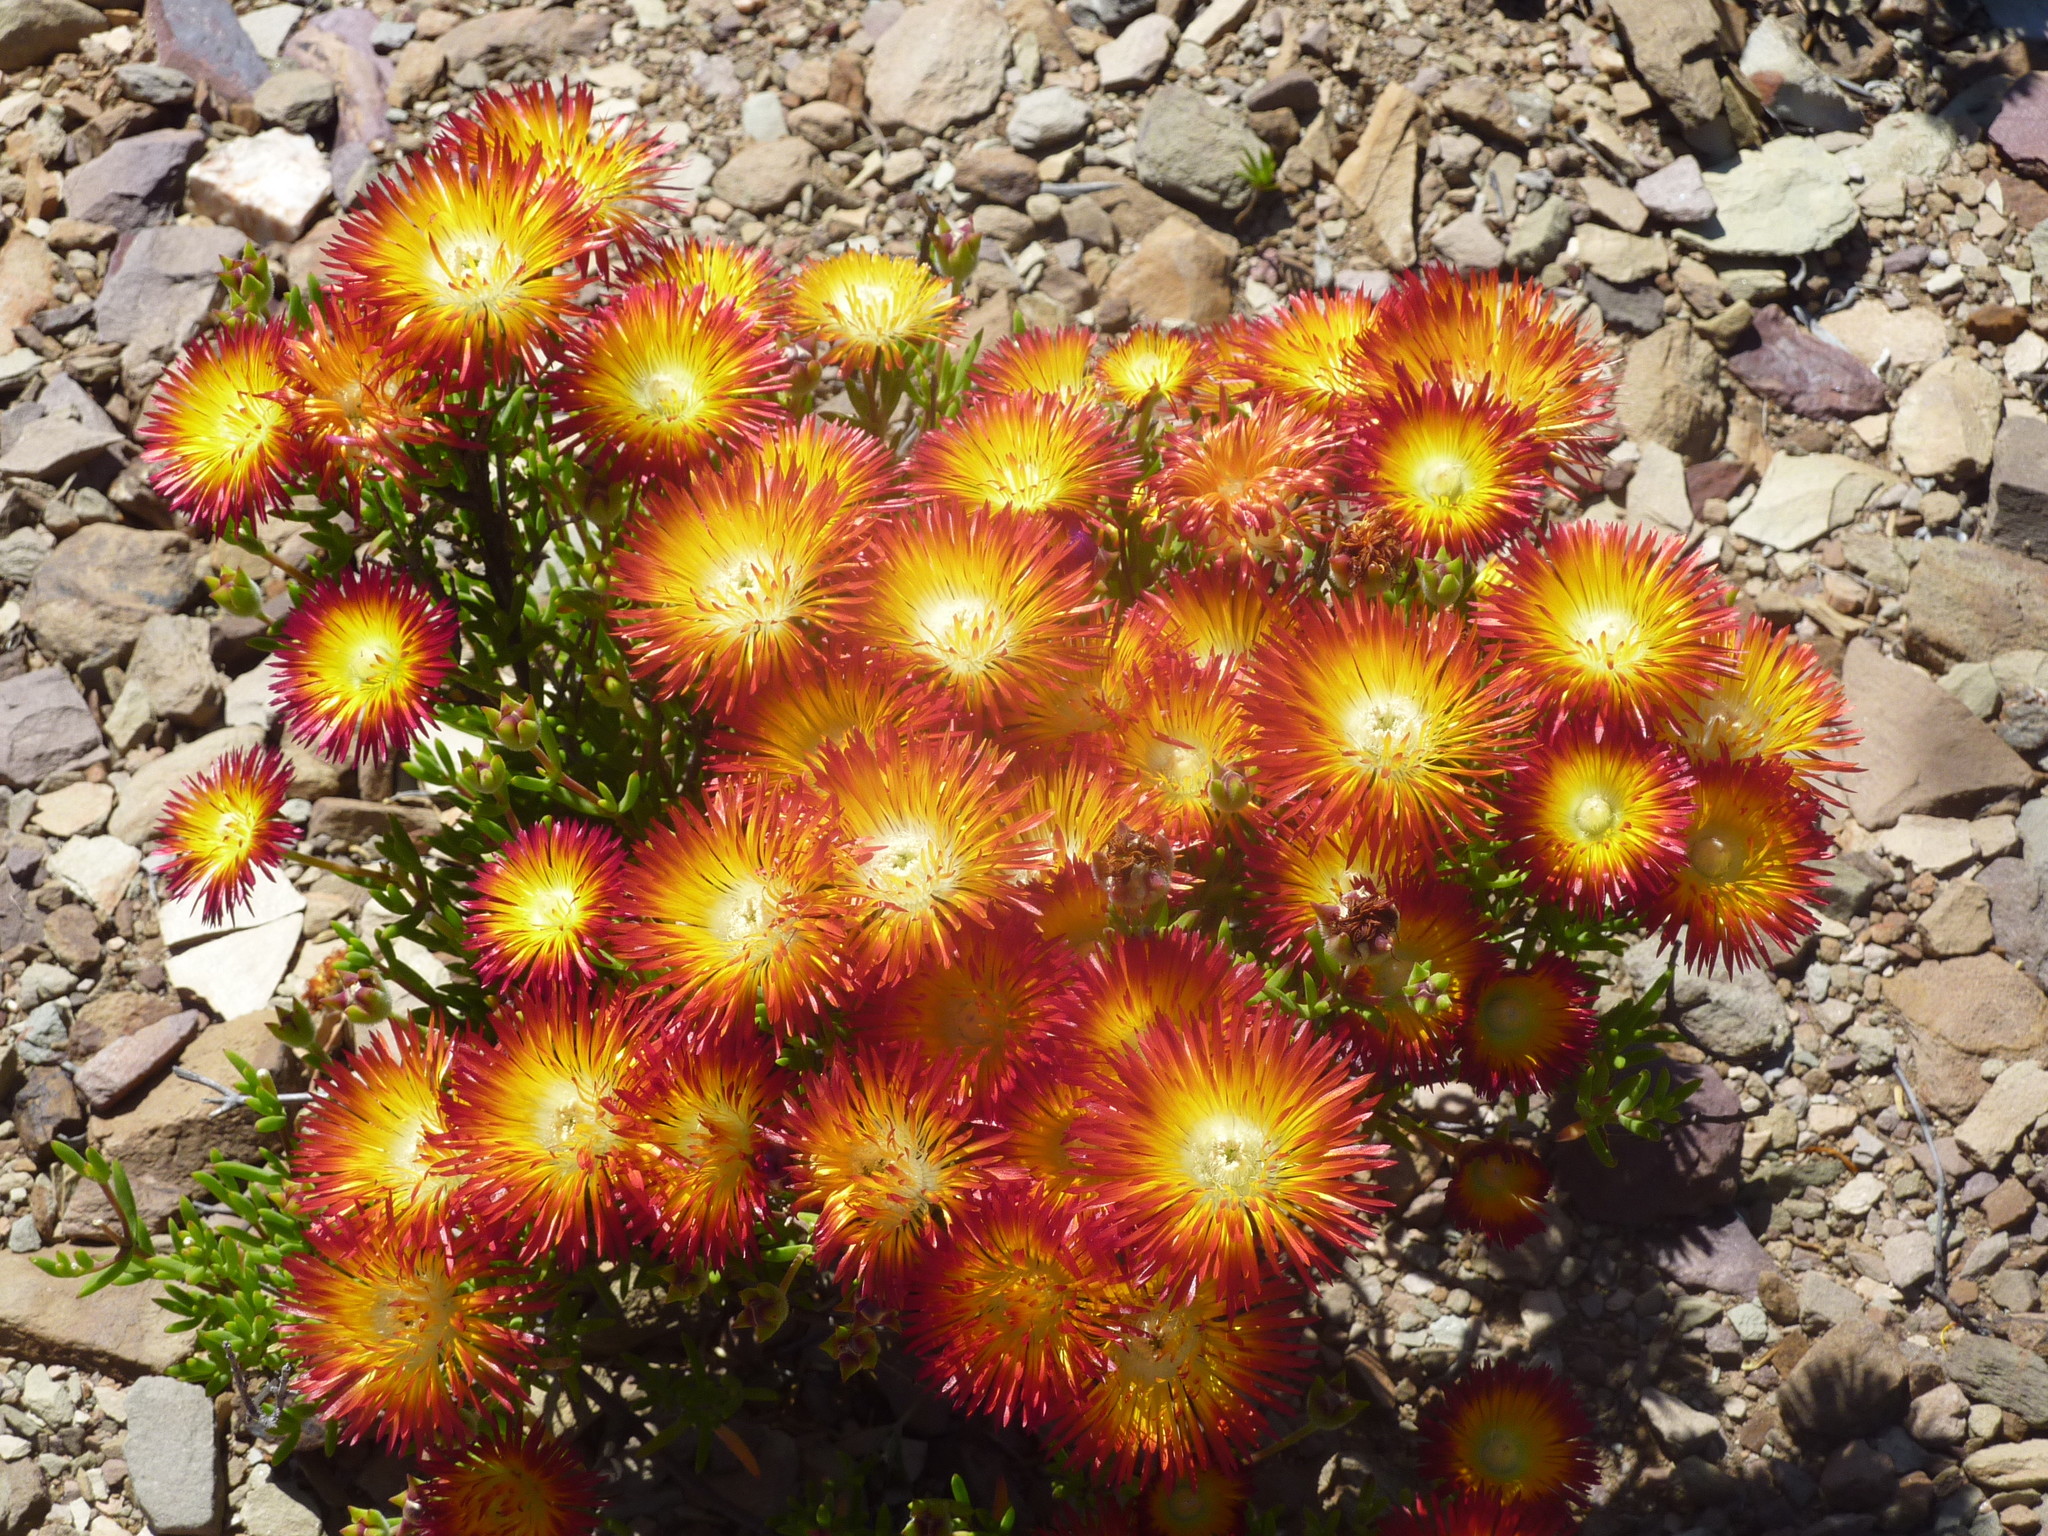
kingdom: Plantae
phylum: Tracheophyta
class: Magnoliopsida
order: Caryophyllales
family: Aizoaceae
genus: Drosanthemum
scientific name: Drosanthemum bicolor
